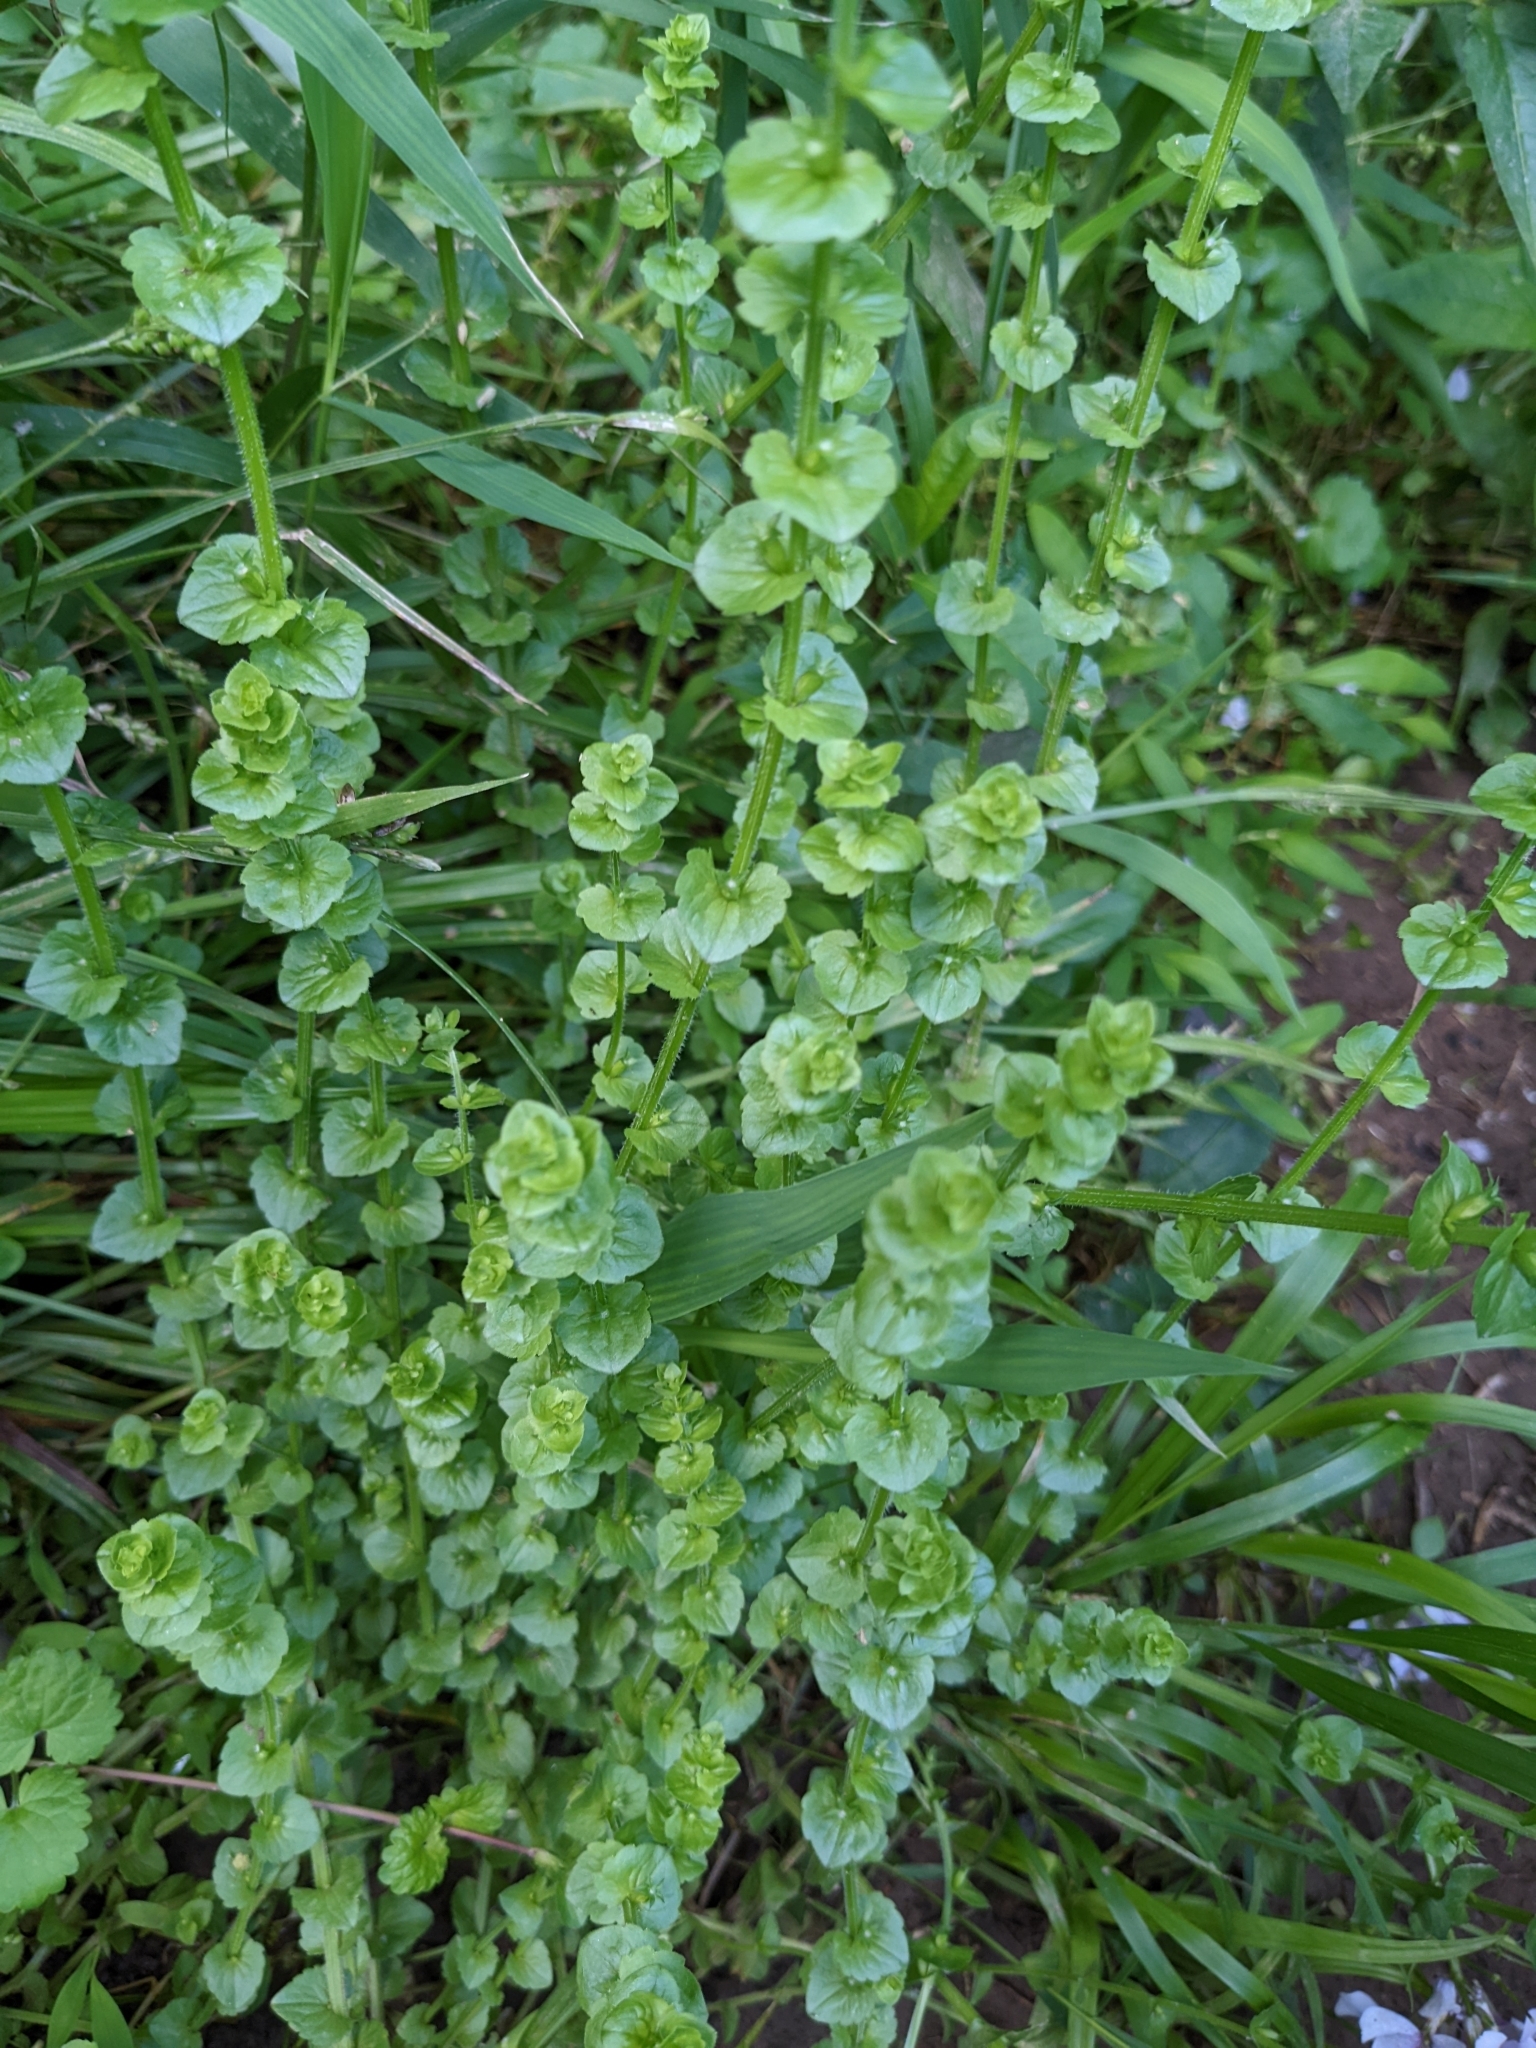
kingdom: Plantae
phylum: Tracheophyta
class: Magnoliopsida
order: Asterales
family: Campanulaceae
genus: Triodanis
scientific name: Triodanis perfoliata
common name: Clasping venus' looking-glass
